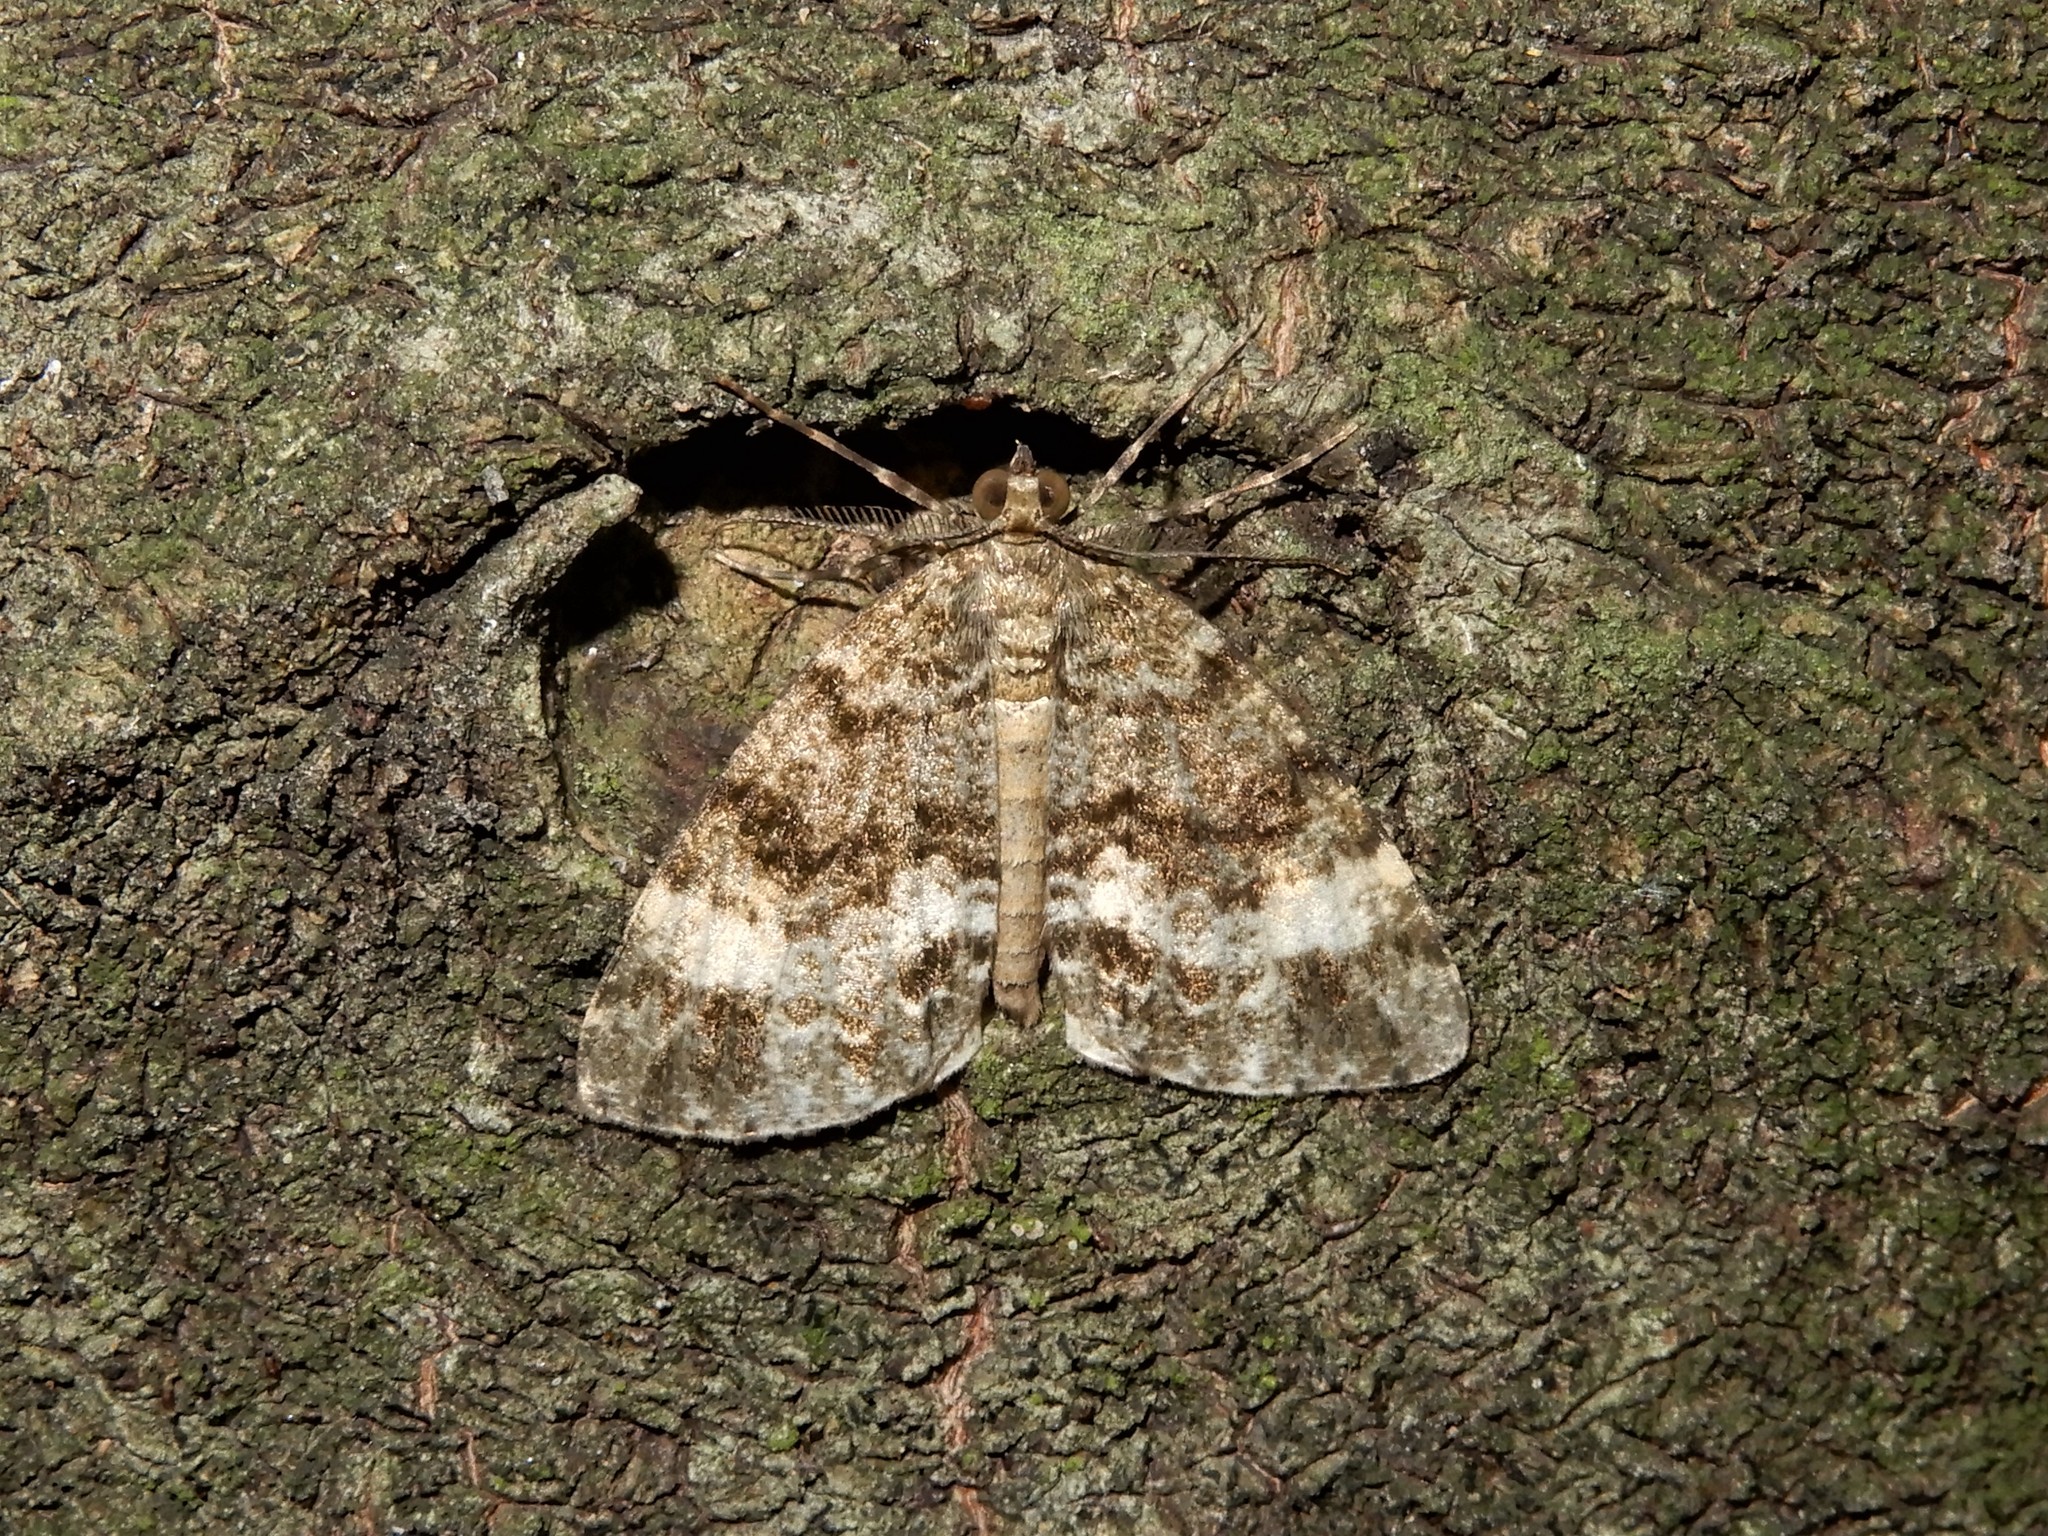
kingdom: Animalia
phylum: Arthropoda
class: Insecta
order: Lepidoptera
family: Geometridae
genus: Pseudocoremia
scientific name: Pseudocoremia indistincta
